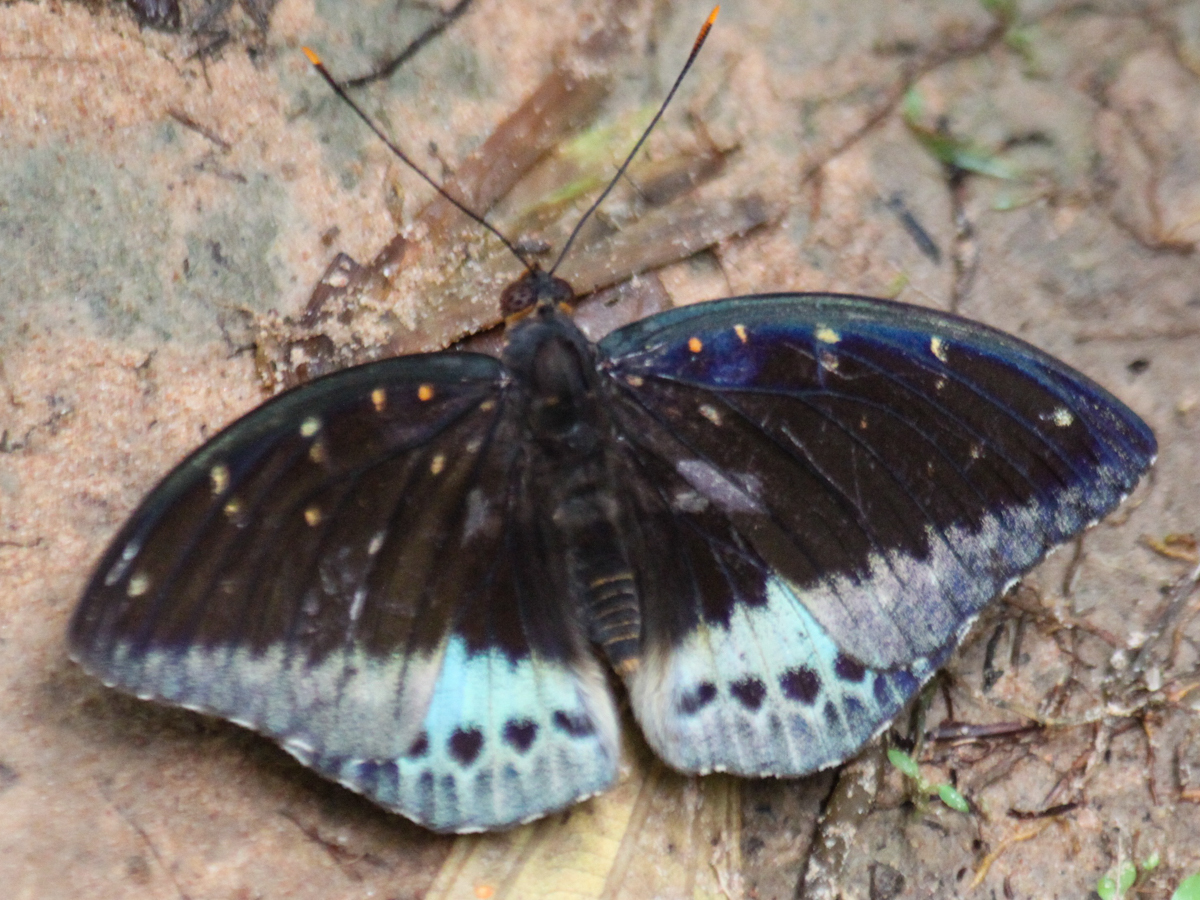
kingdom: Animalia
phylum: Arthropoda
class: Insecta
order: Lepidoptera
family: Nymphalidae
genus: Lexias
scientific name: Lexias pardalis
